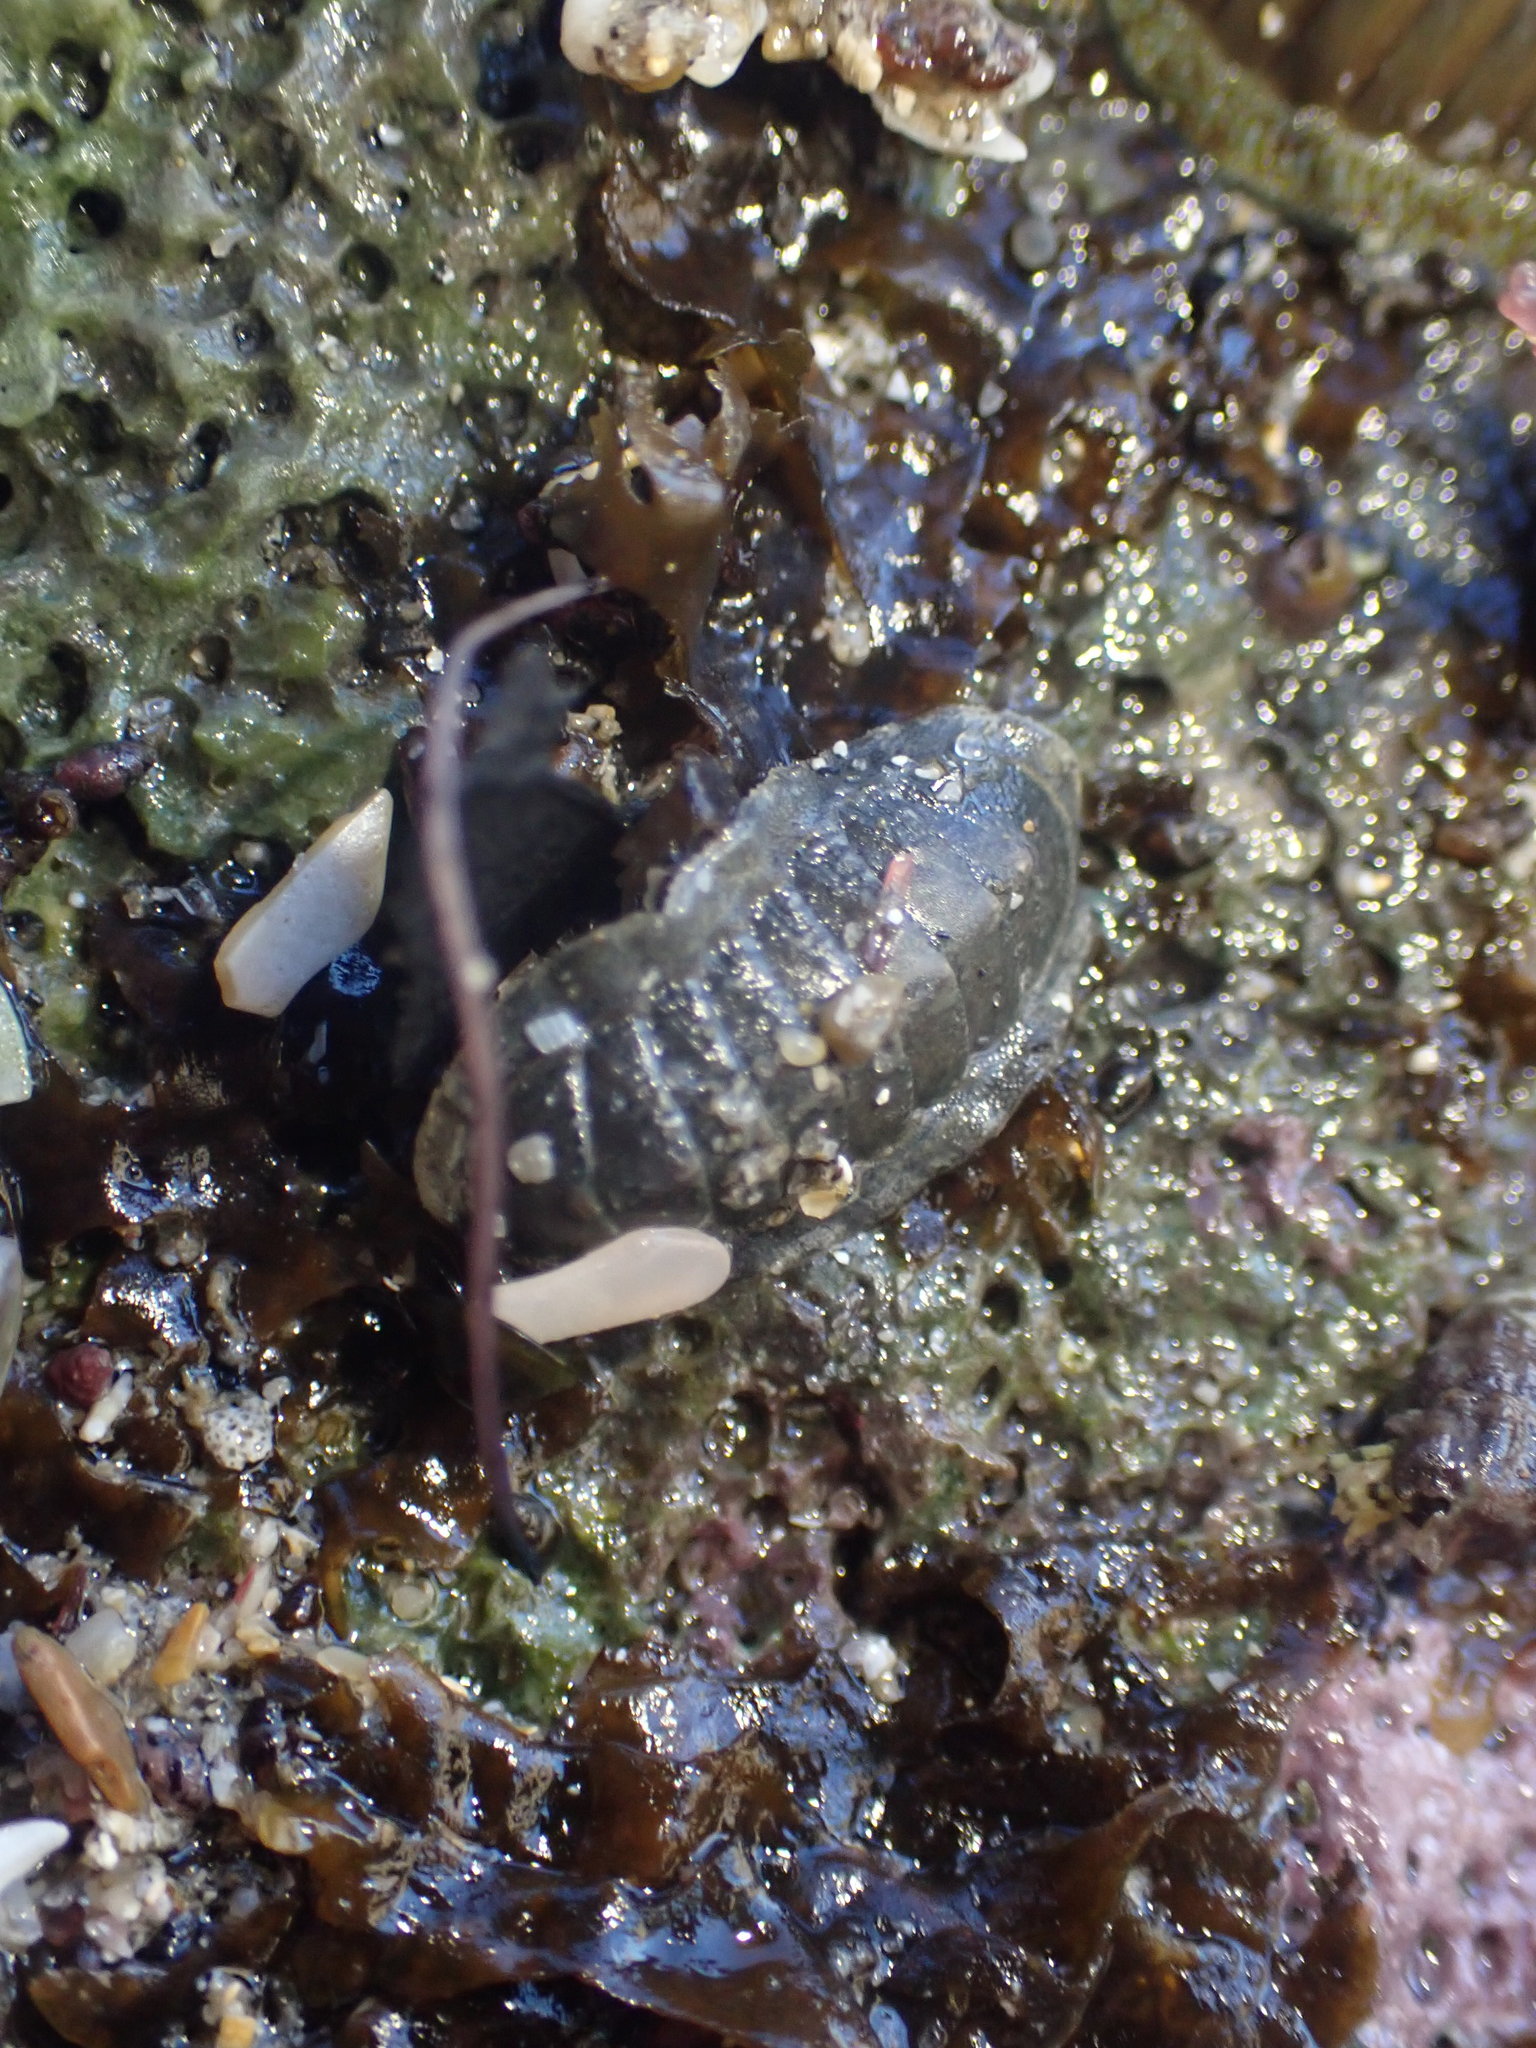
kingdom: Animalia
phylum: Mollusca
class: Polyplacophora
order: Chitonida
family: Ischnochitonidae
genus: Ischnochiton
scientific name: Ischnochiton maorianus
